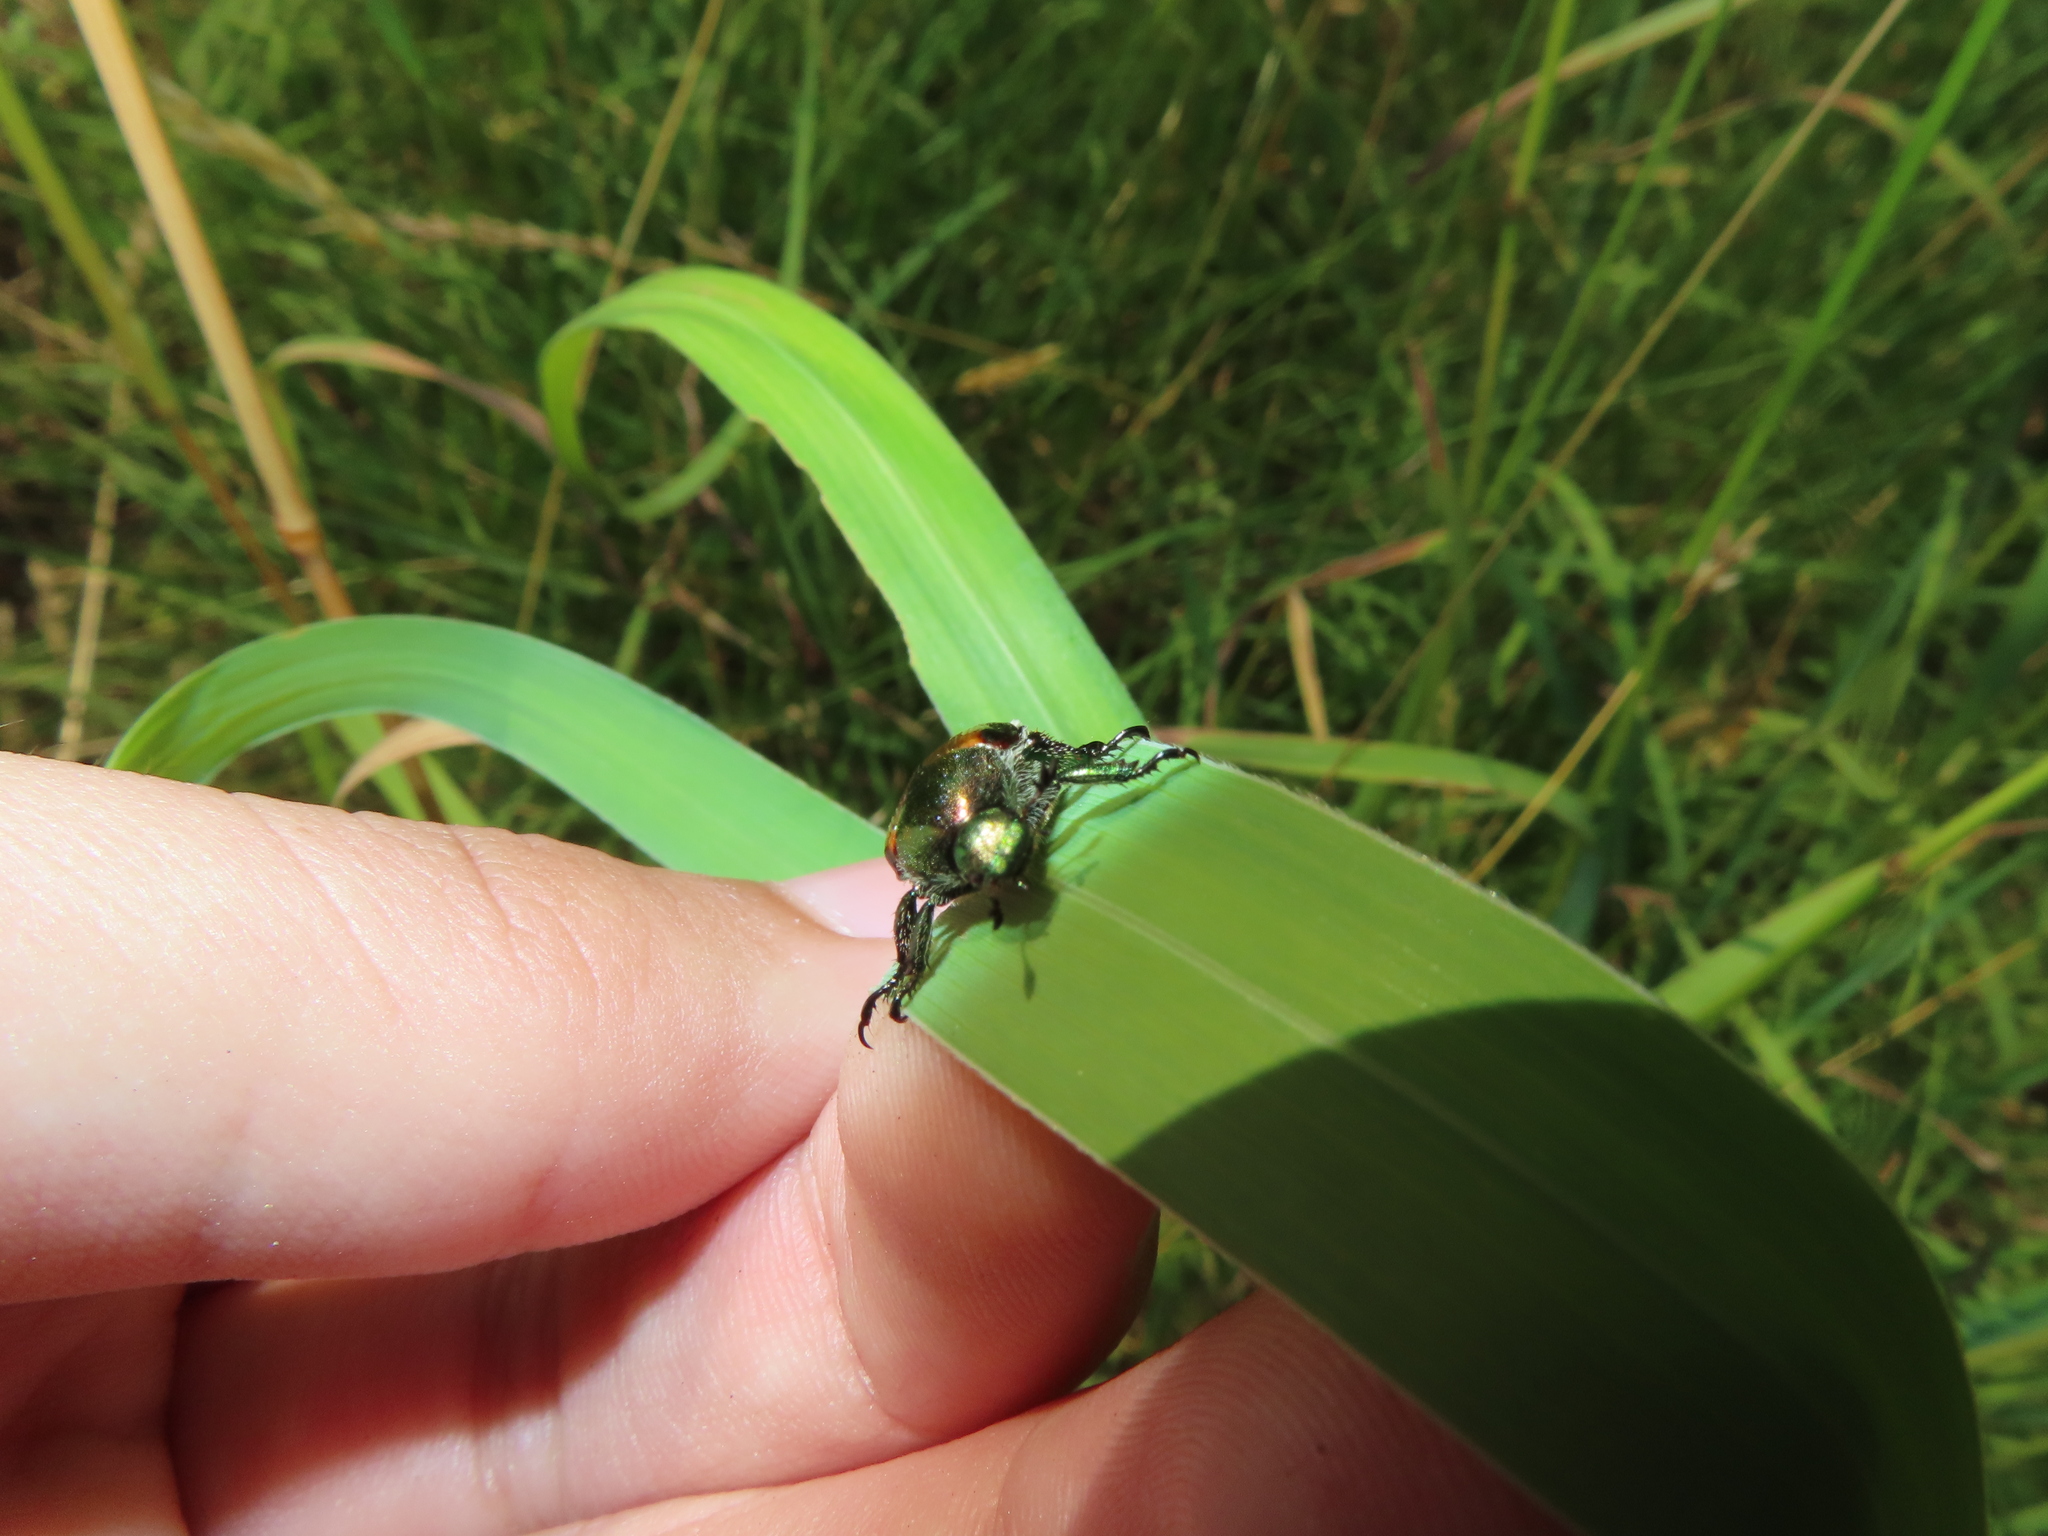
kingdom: Animalia
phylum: Arthropoda
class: Insecta
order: Coleoptera
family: Scarabaeidae
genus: Popillia
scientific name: Popillia japonica
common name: Japanese beetle
